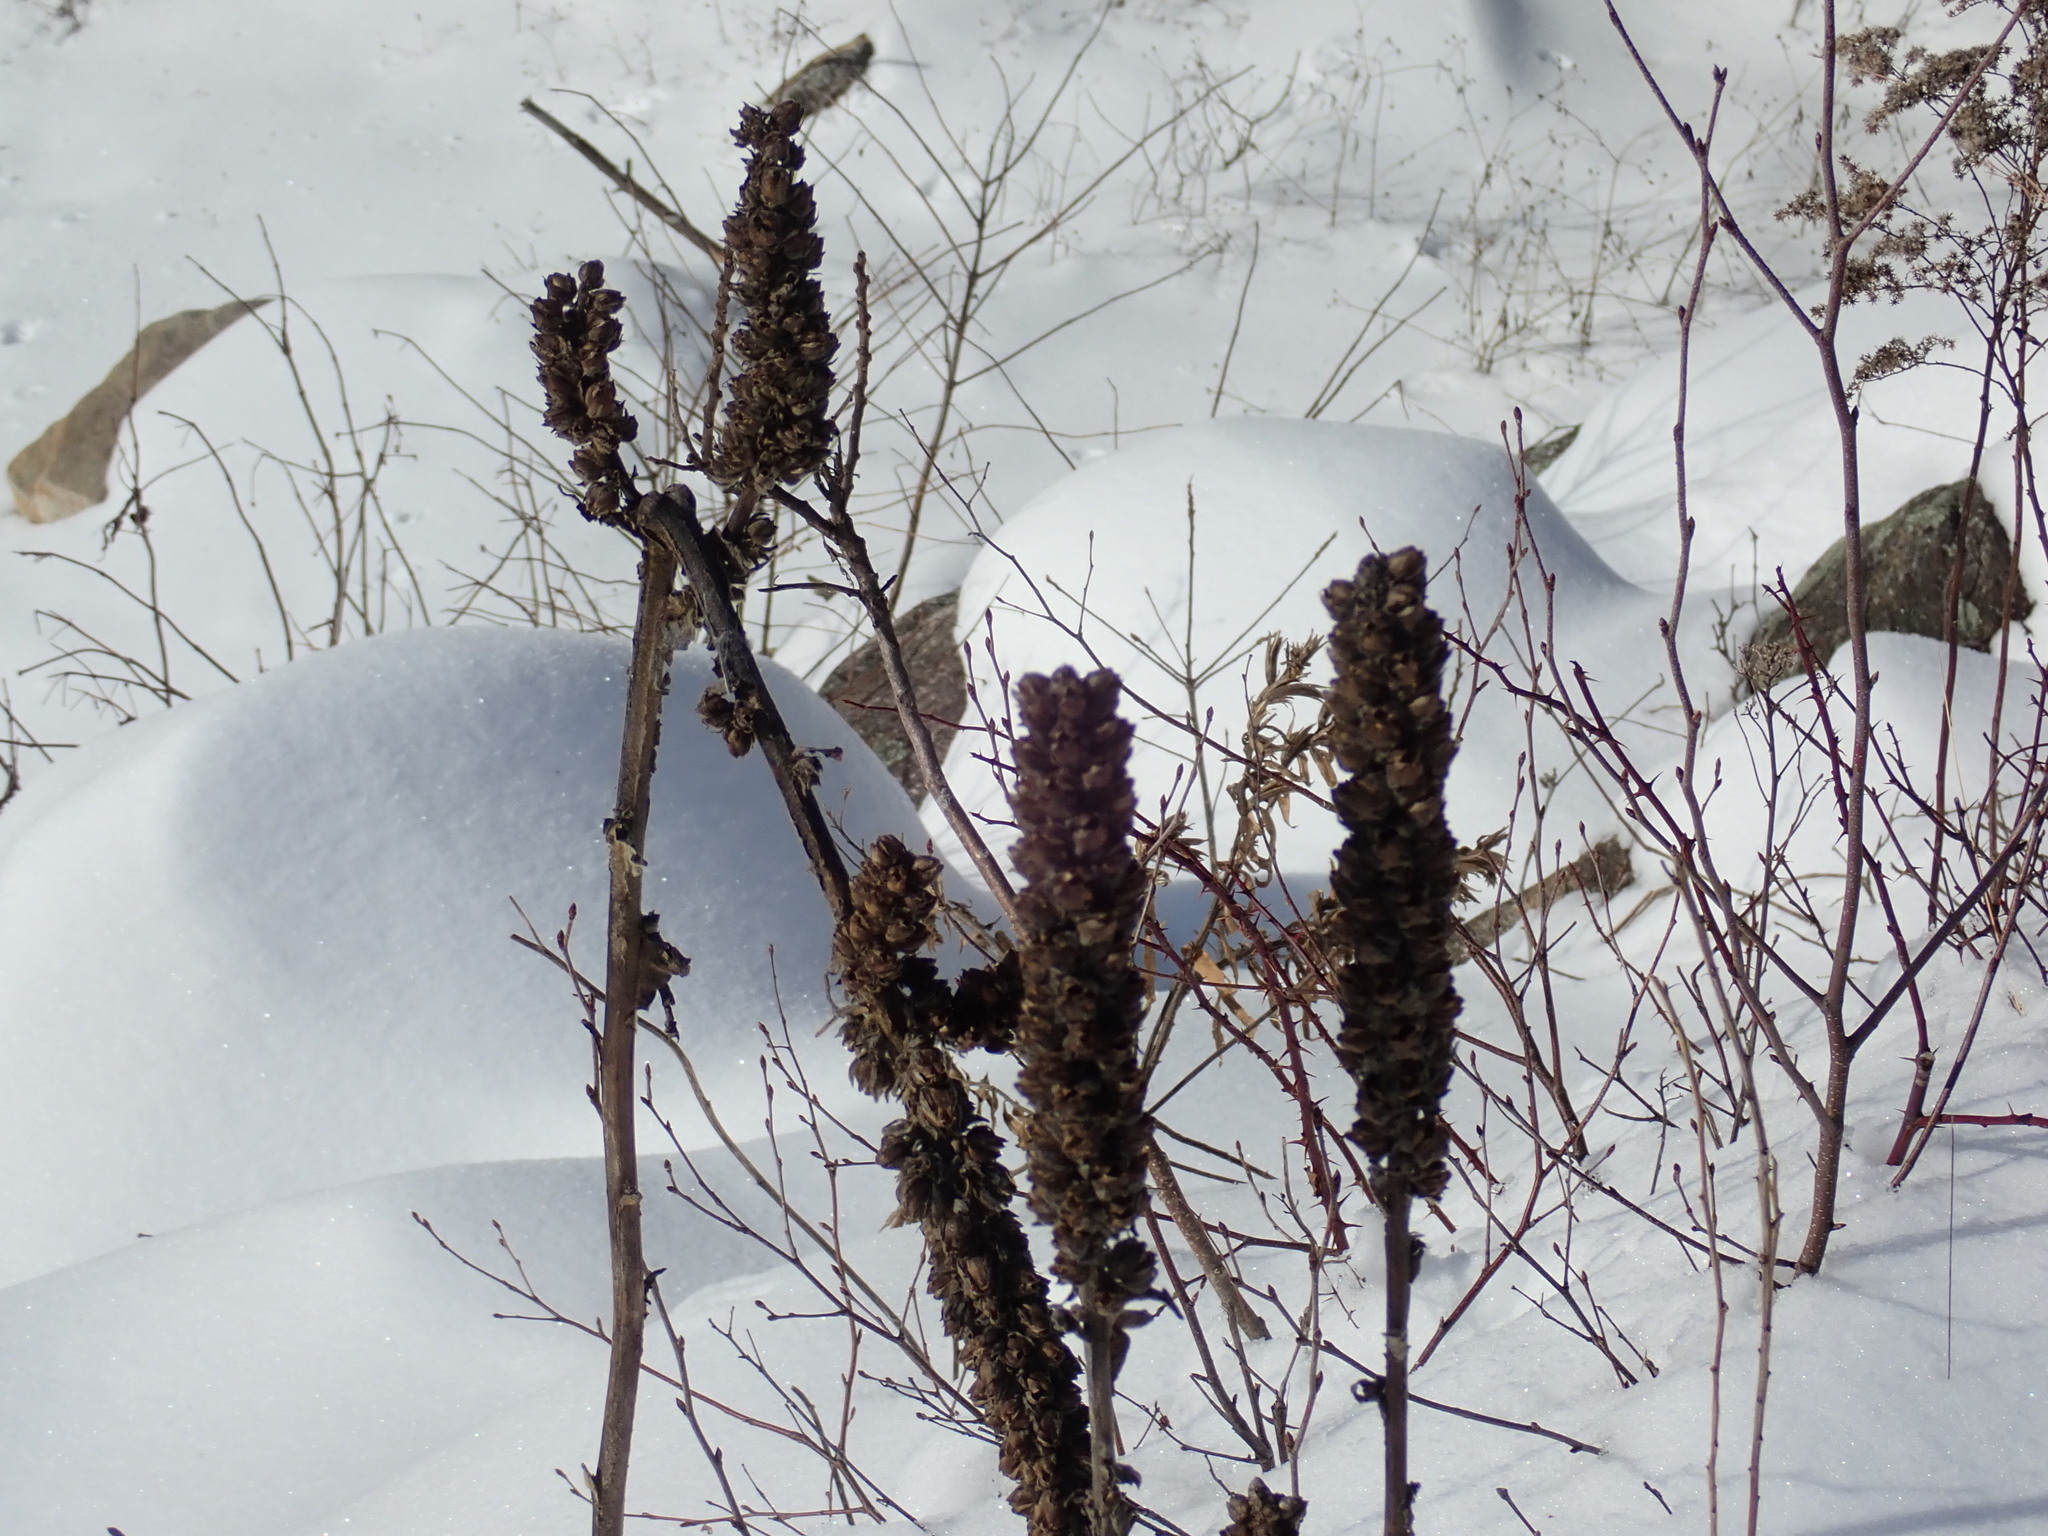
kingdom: Plantae
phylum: Tracheophyta
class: Magnoliopsida
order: Lamiales
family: Scrophulariaceae
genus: Verbascum
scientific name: Verbascum thapsus
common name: Common mullein
